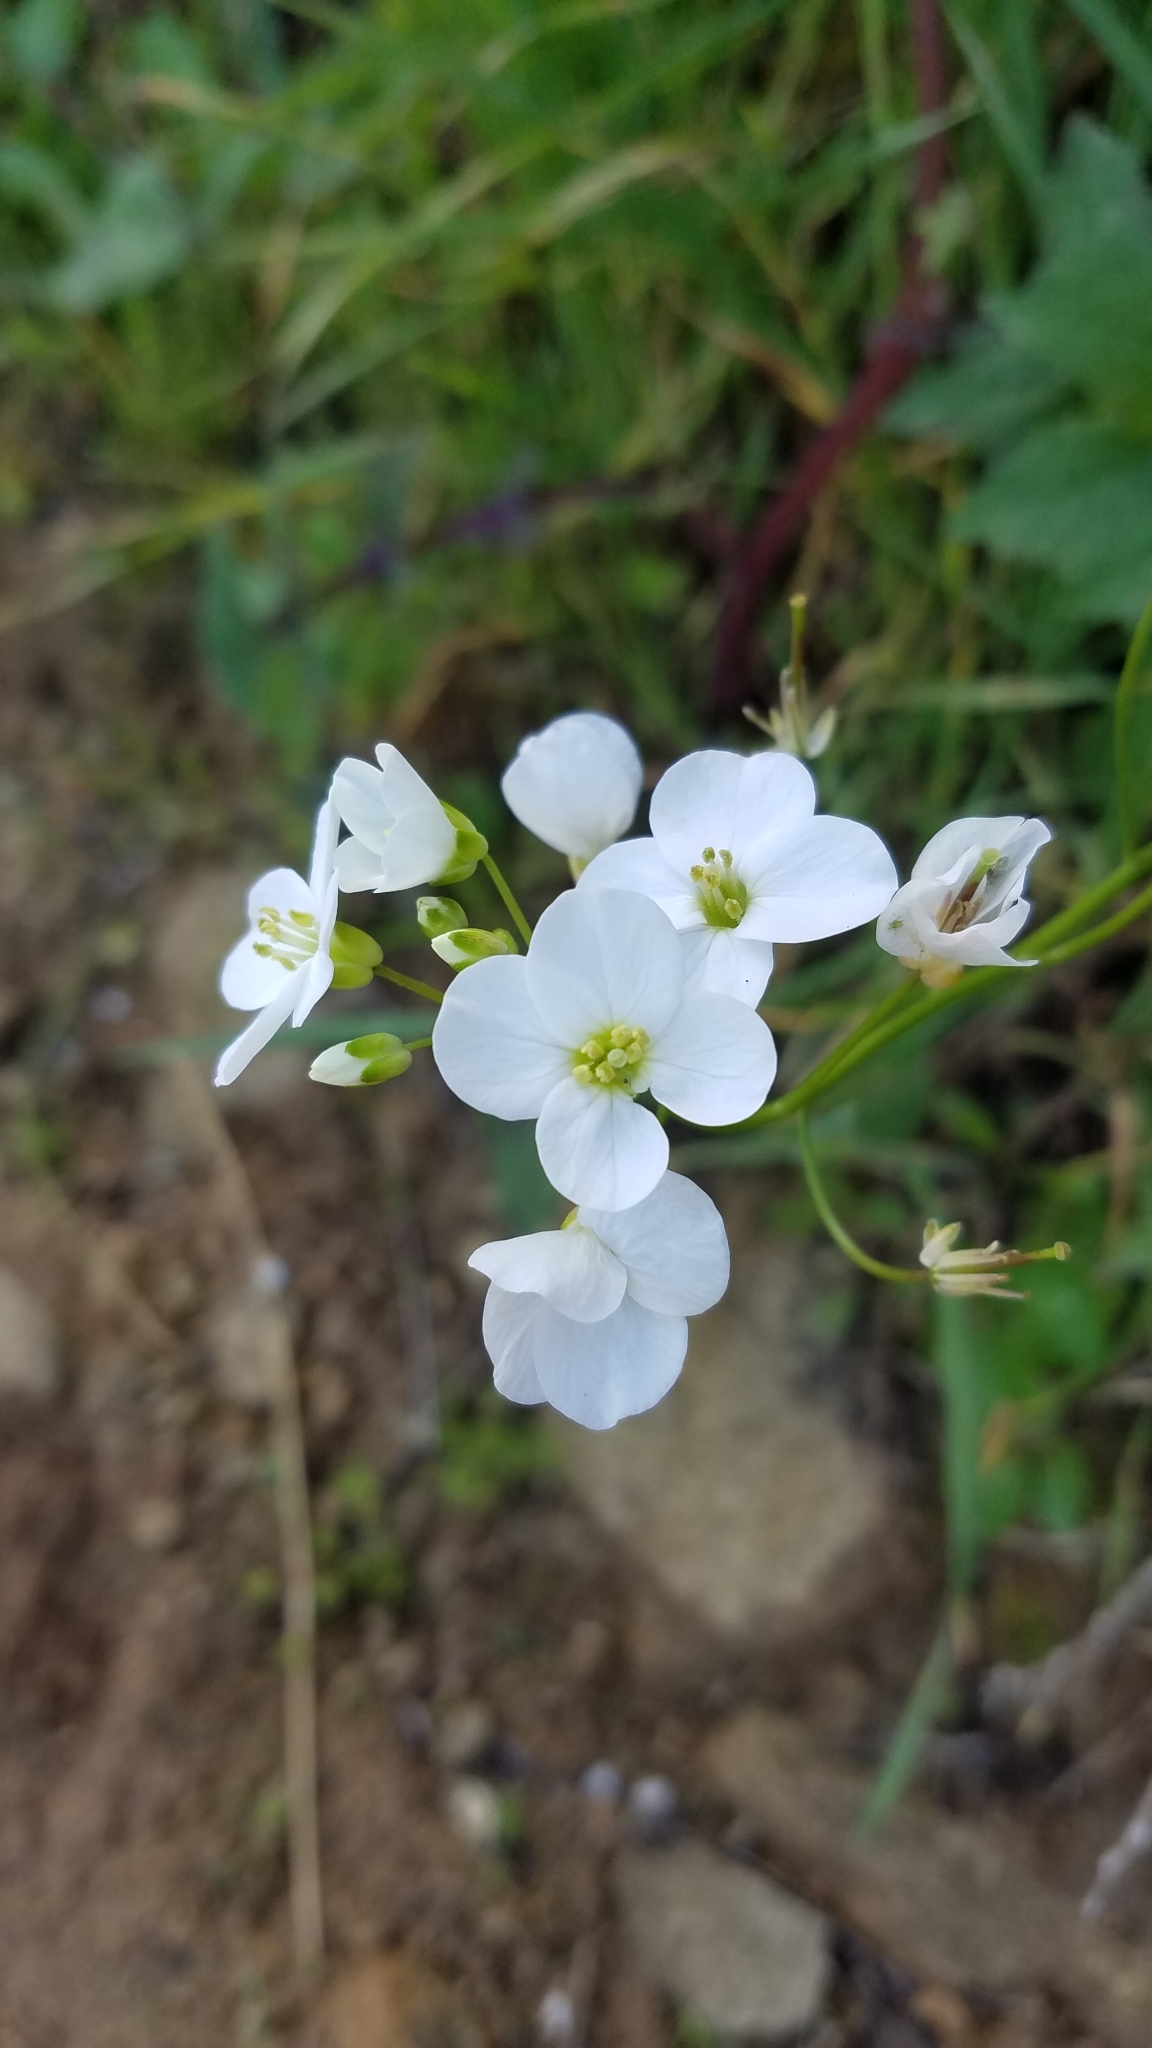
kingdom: Plantae
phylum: Tracheophyta
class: Magnoliopsida
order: Brassicales
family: Brassicaceae
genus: Cardamine
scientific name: Cardamine californica
